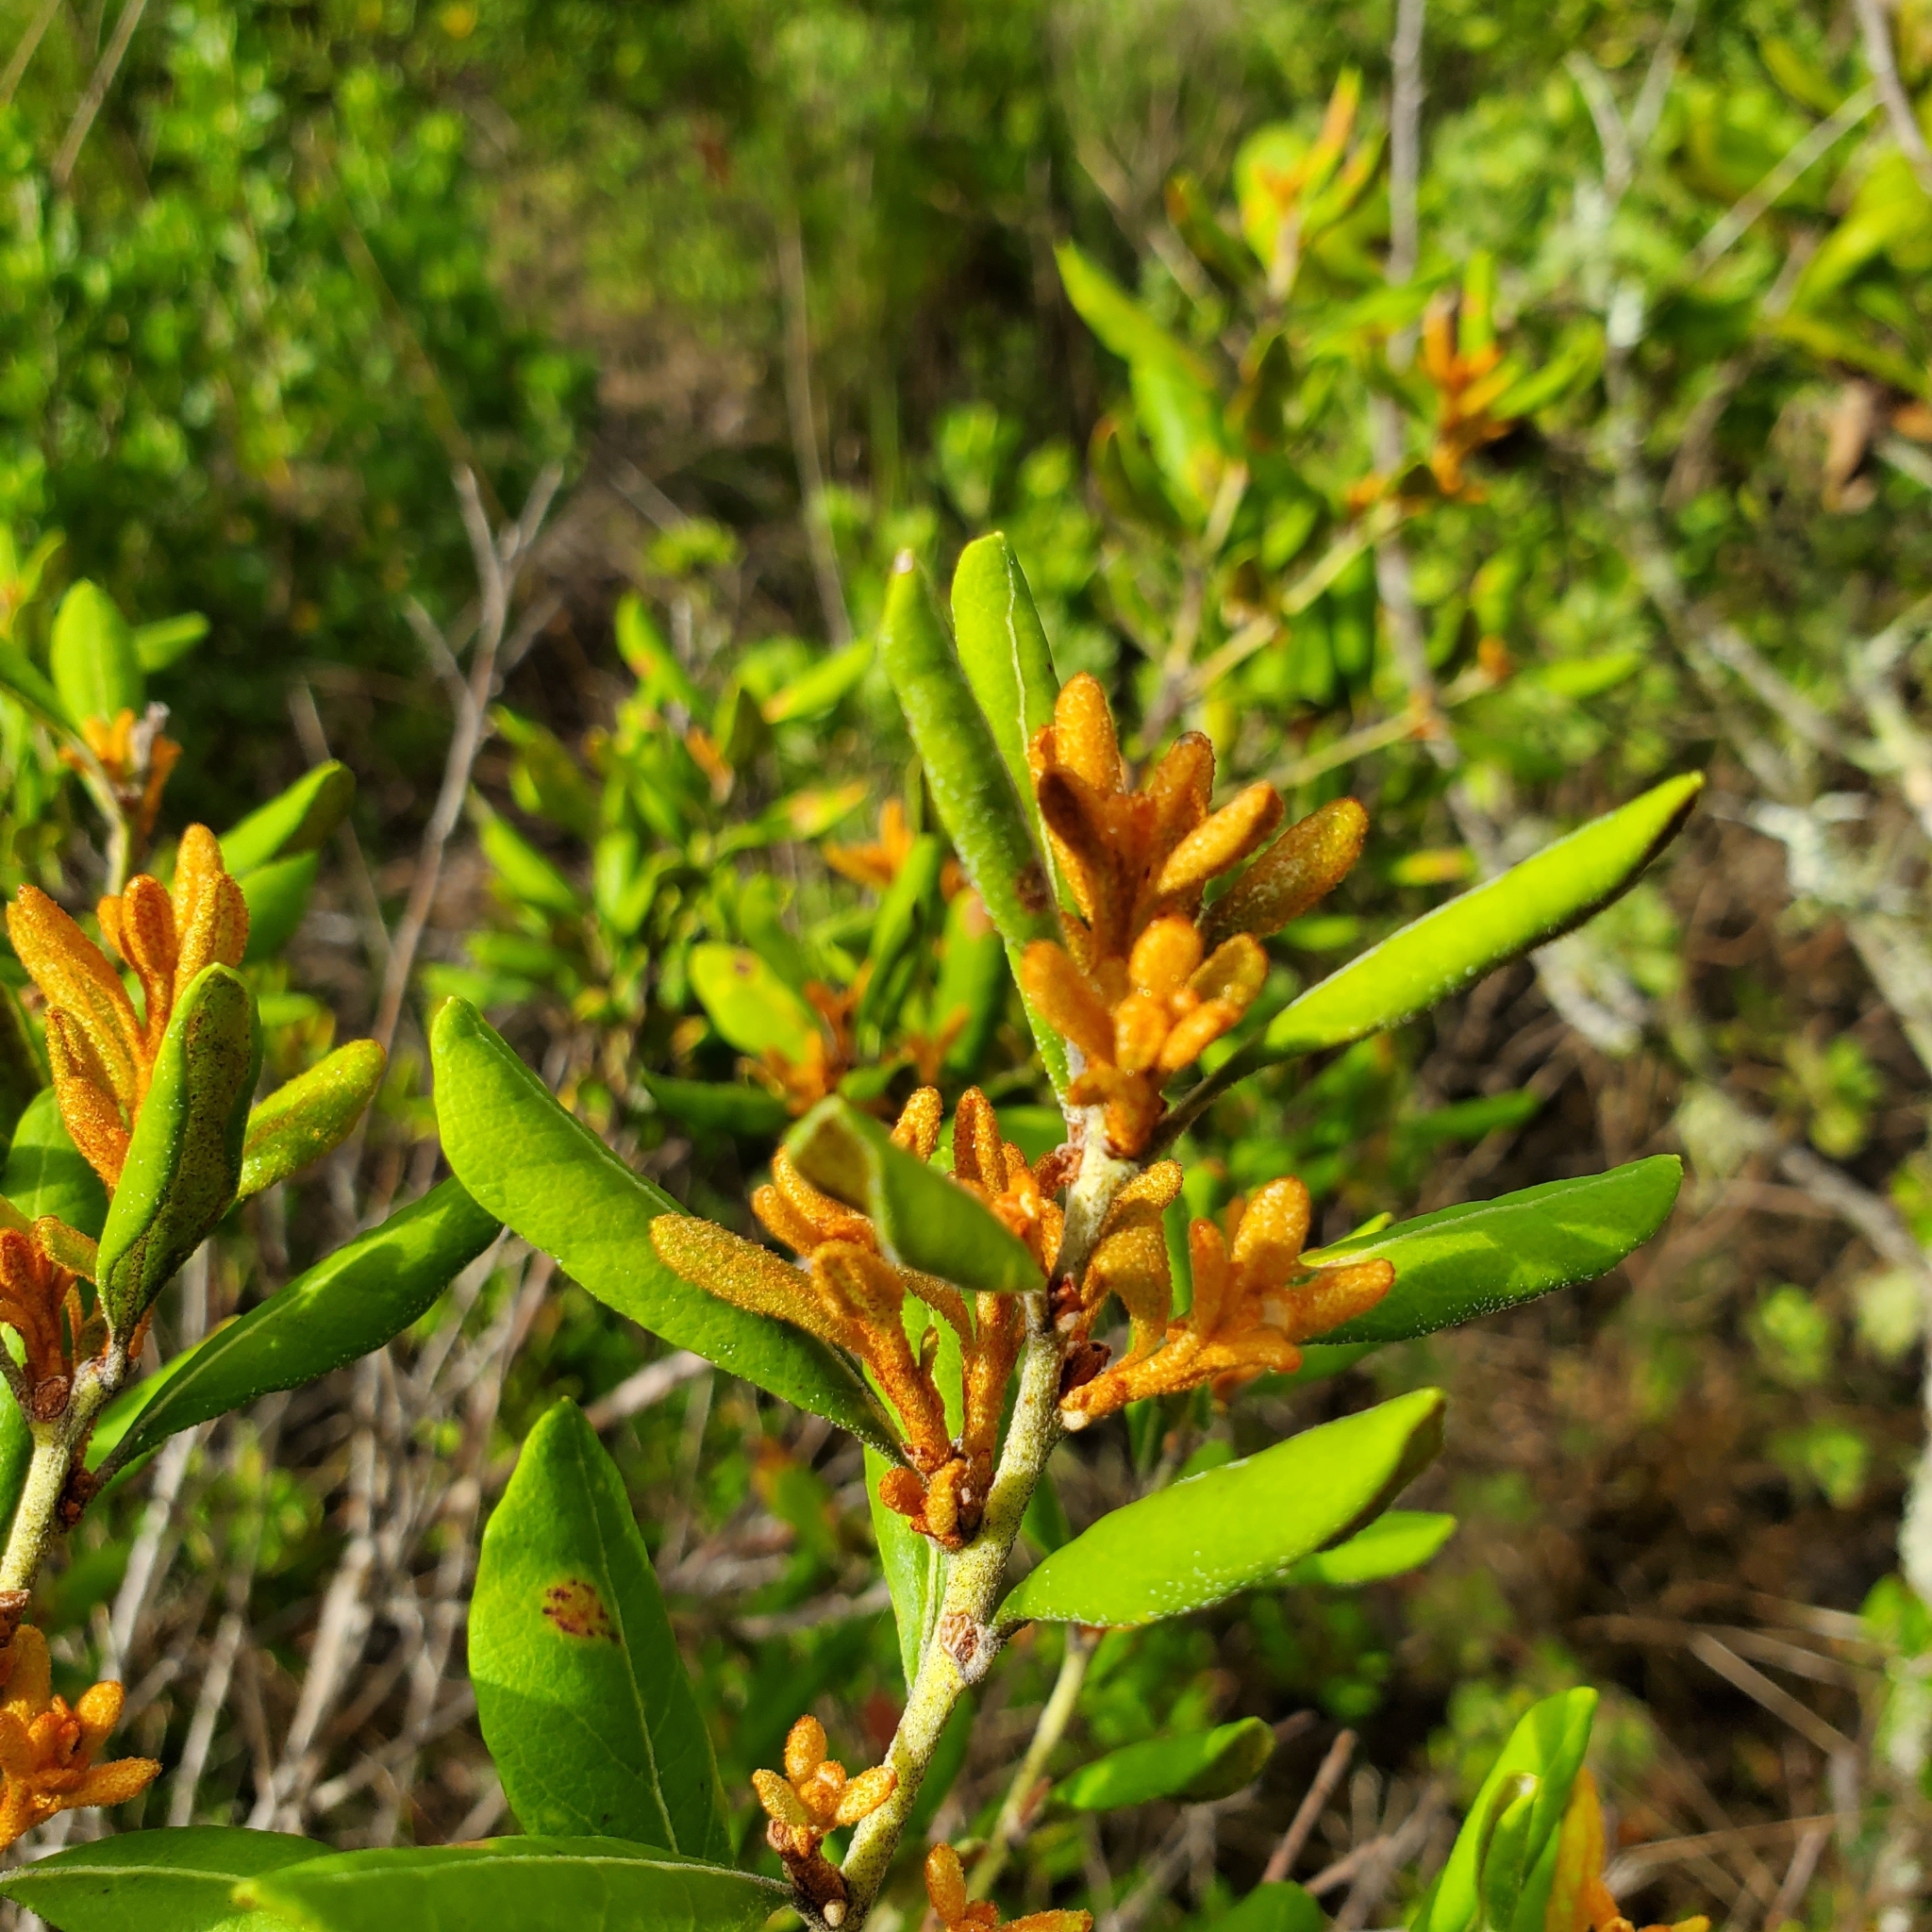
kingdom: Plantae
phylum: Tracheophyta
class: Magnoliopsida
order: Ericales
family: Ericaceae
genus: Lyonia
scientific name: Lyonia ferruginea
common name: Rusty lyonia
